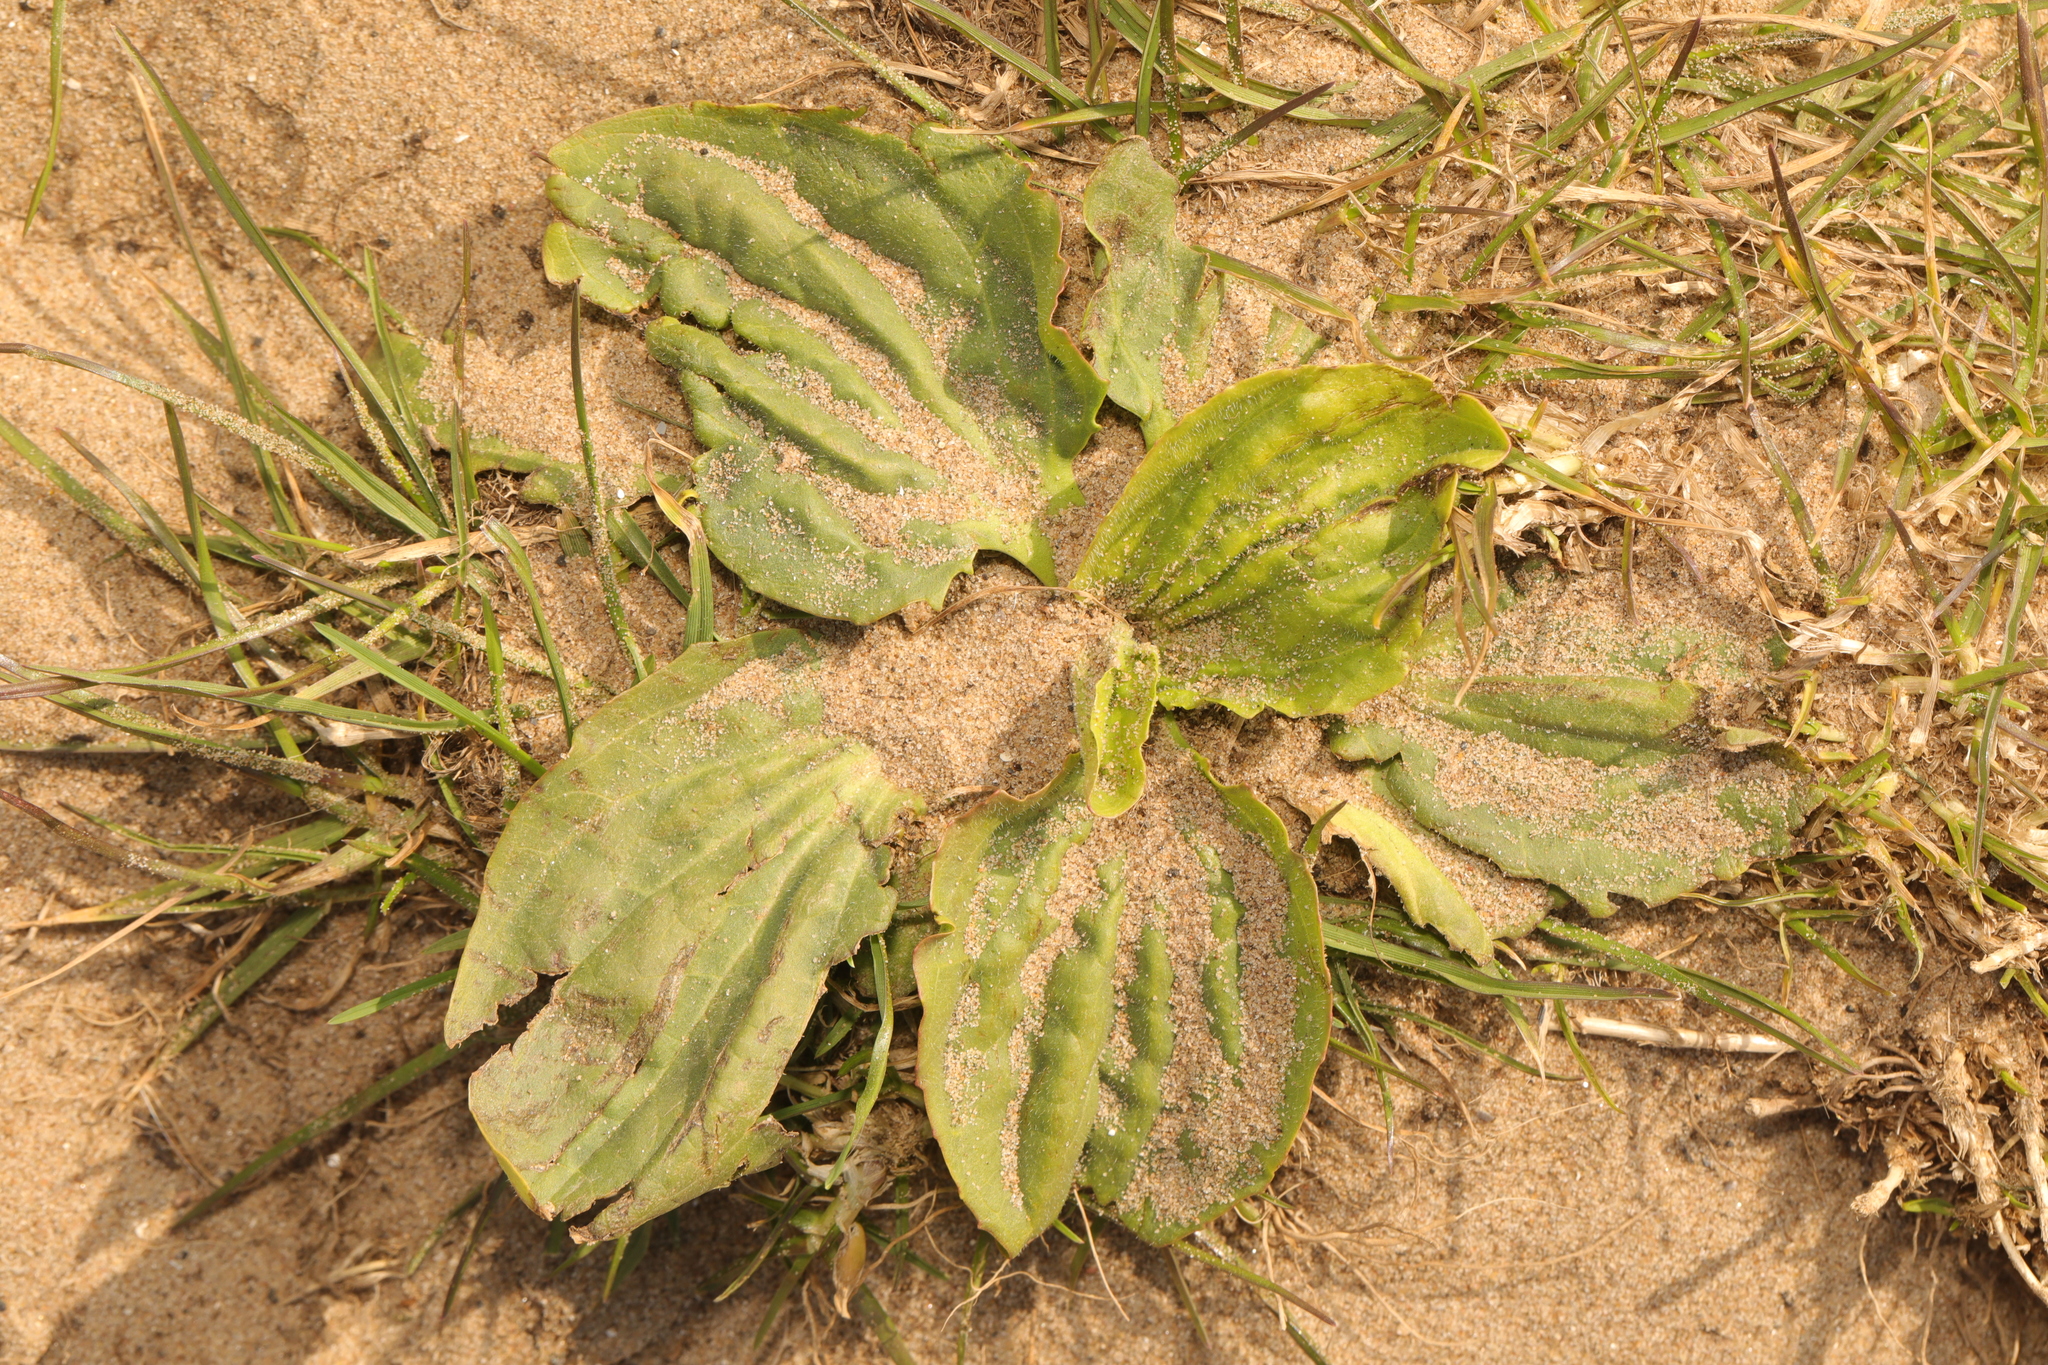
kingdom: Plantae
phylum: Tracheophyta
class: Magnoliopsida
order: Lamiales
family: Plantaginaceae
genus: Plantago
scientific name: Plantago major
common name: Common plantain
